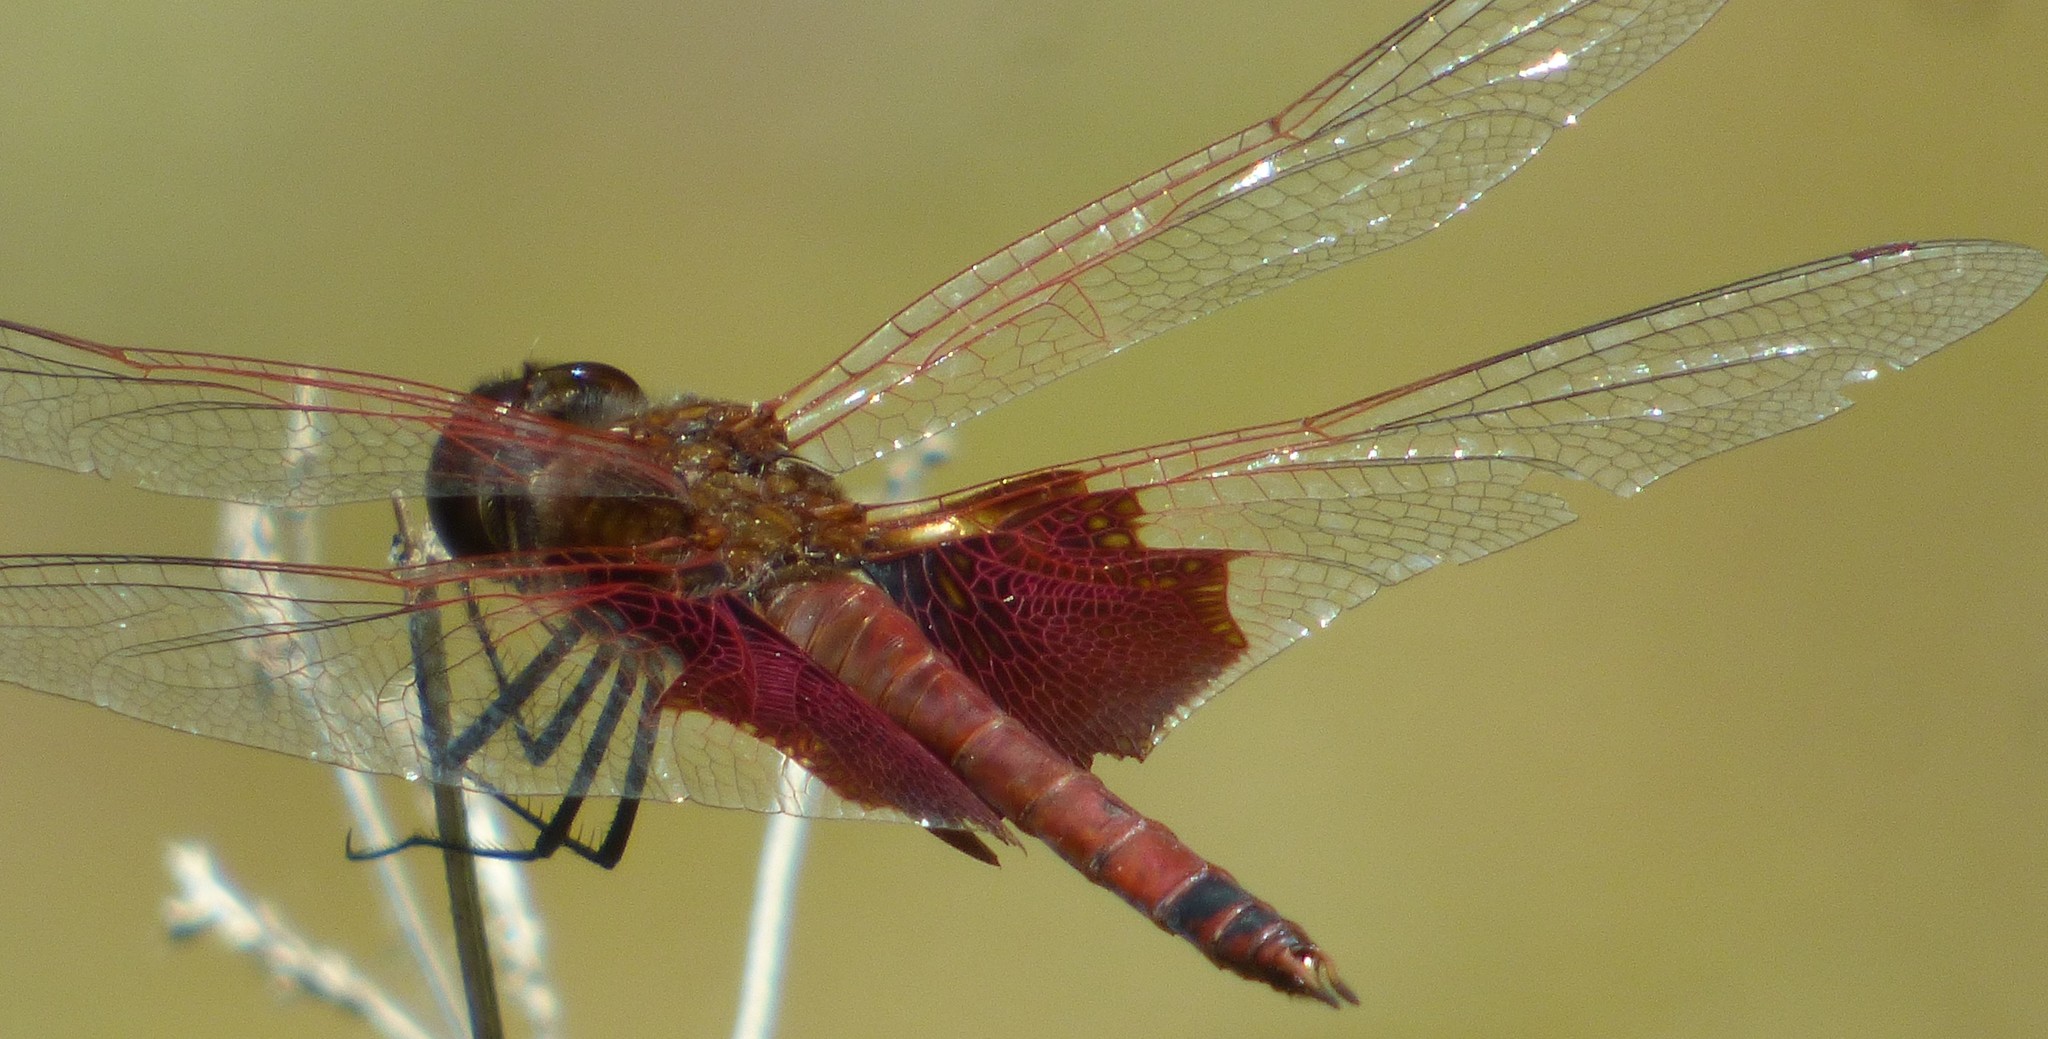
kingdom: Animalia
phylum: Arthropoda
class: Insecta
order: Odonata
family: Libellulidae
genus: Tramea
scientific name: Tramea carolina
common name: Carolina saddlebags
